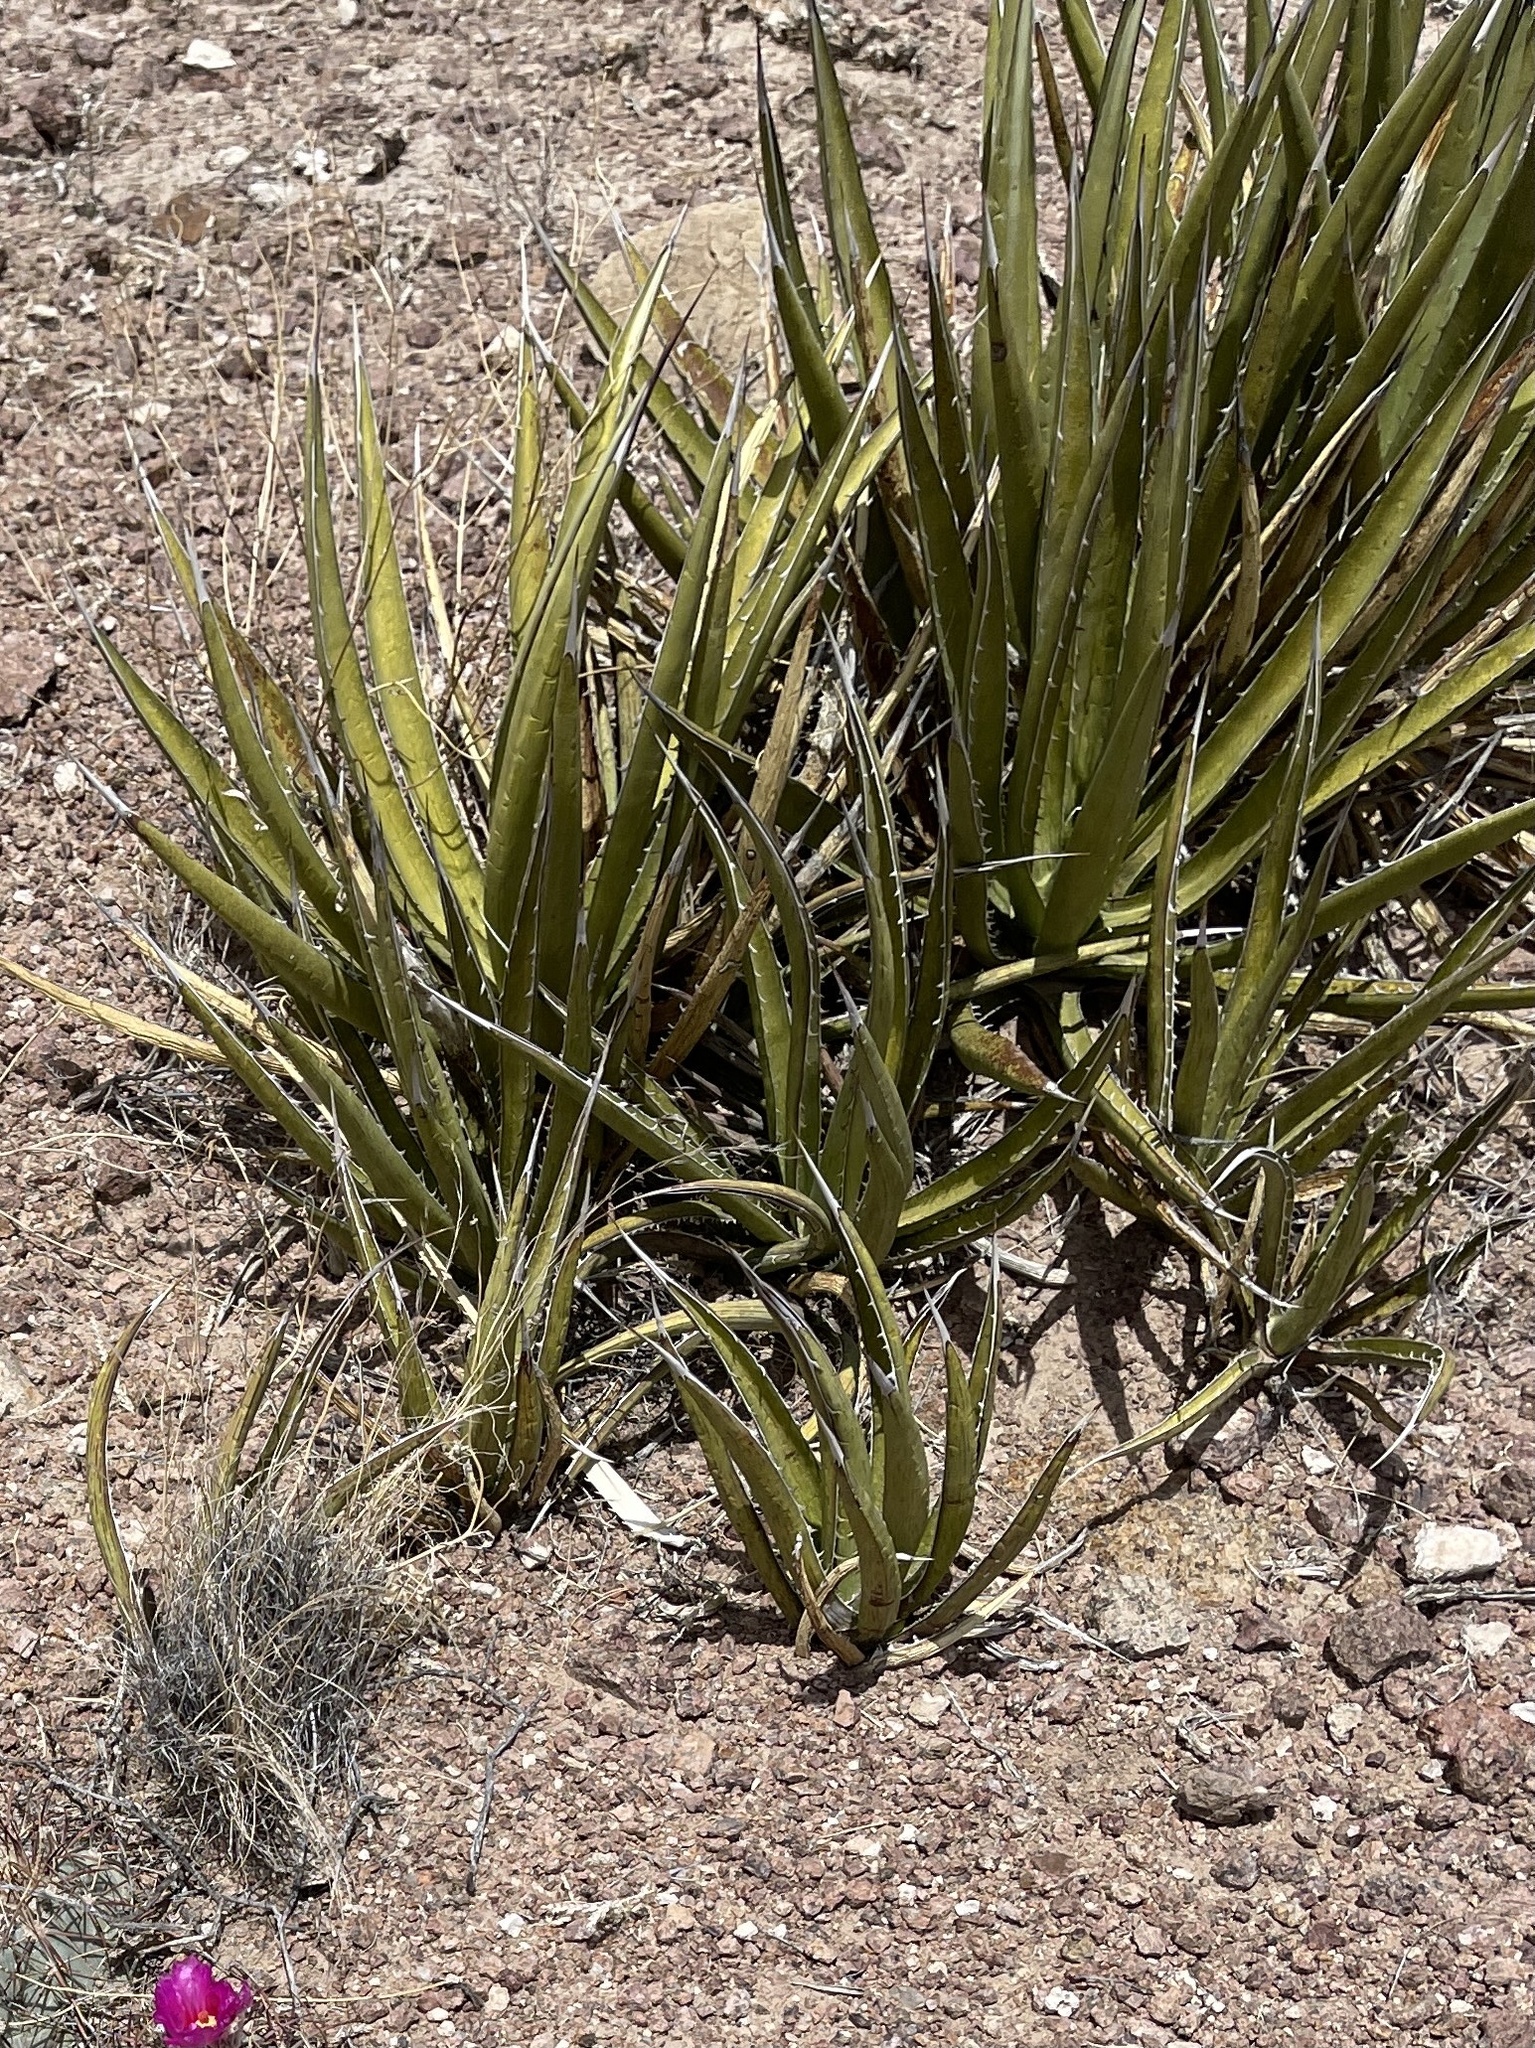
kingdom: Plantae
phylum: Tracheophyta
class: Liliopsida
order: Asparagales
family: Asparagaceae
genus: Agave
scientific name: Agave lechuguilla
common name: Lecheguilla agave
